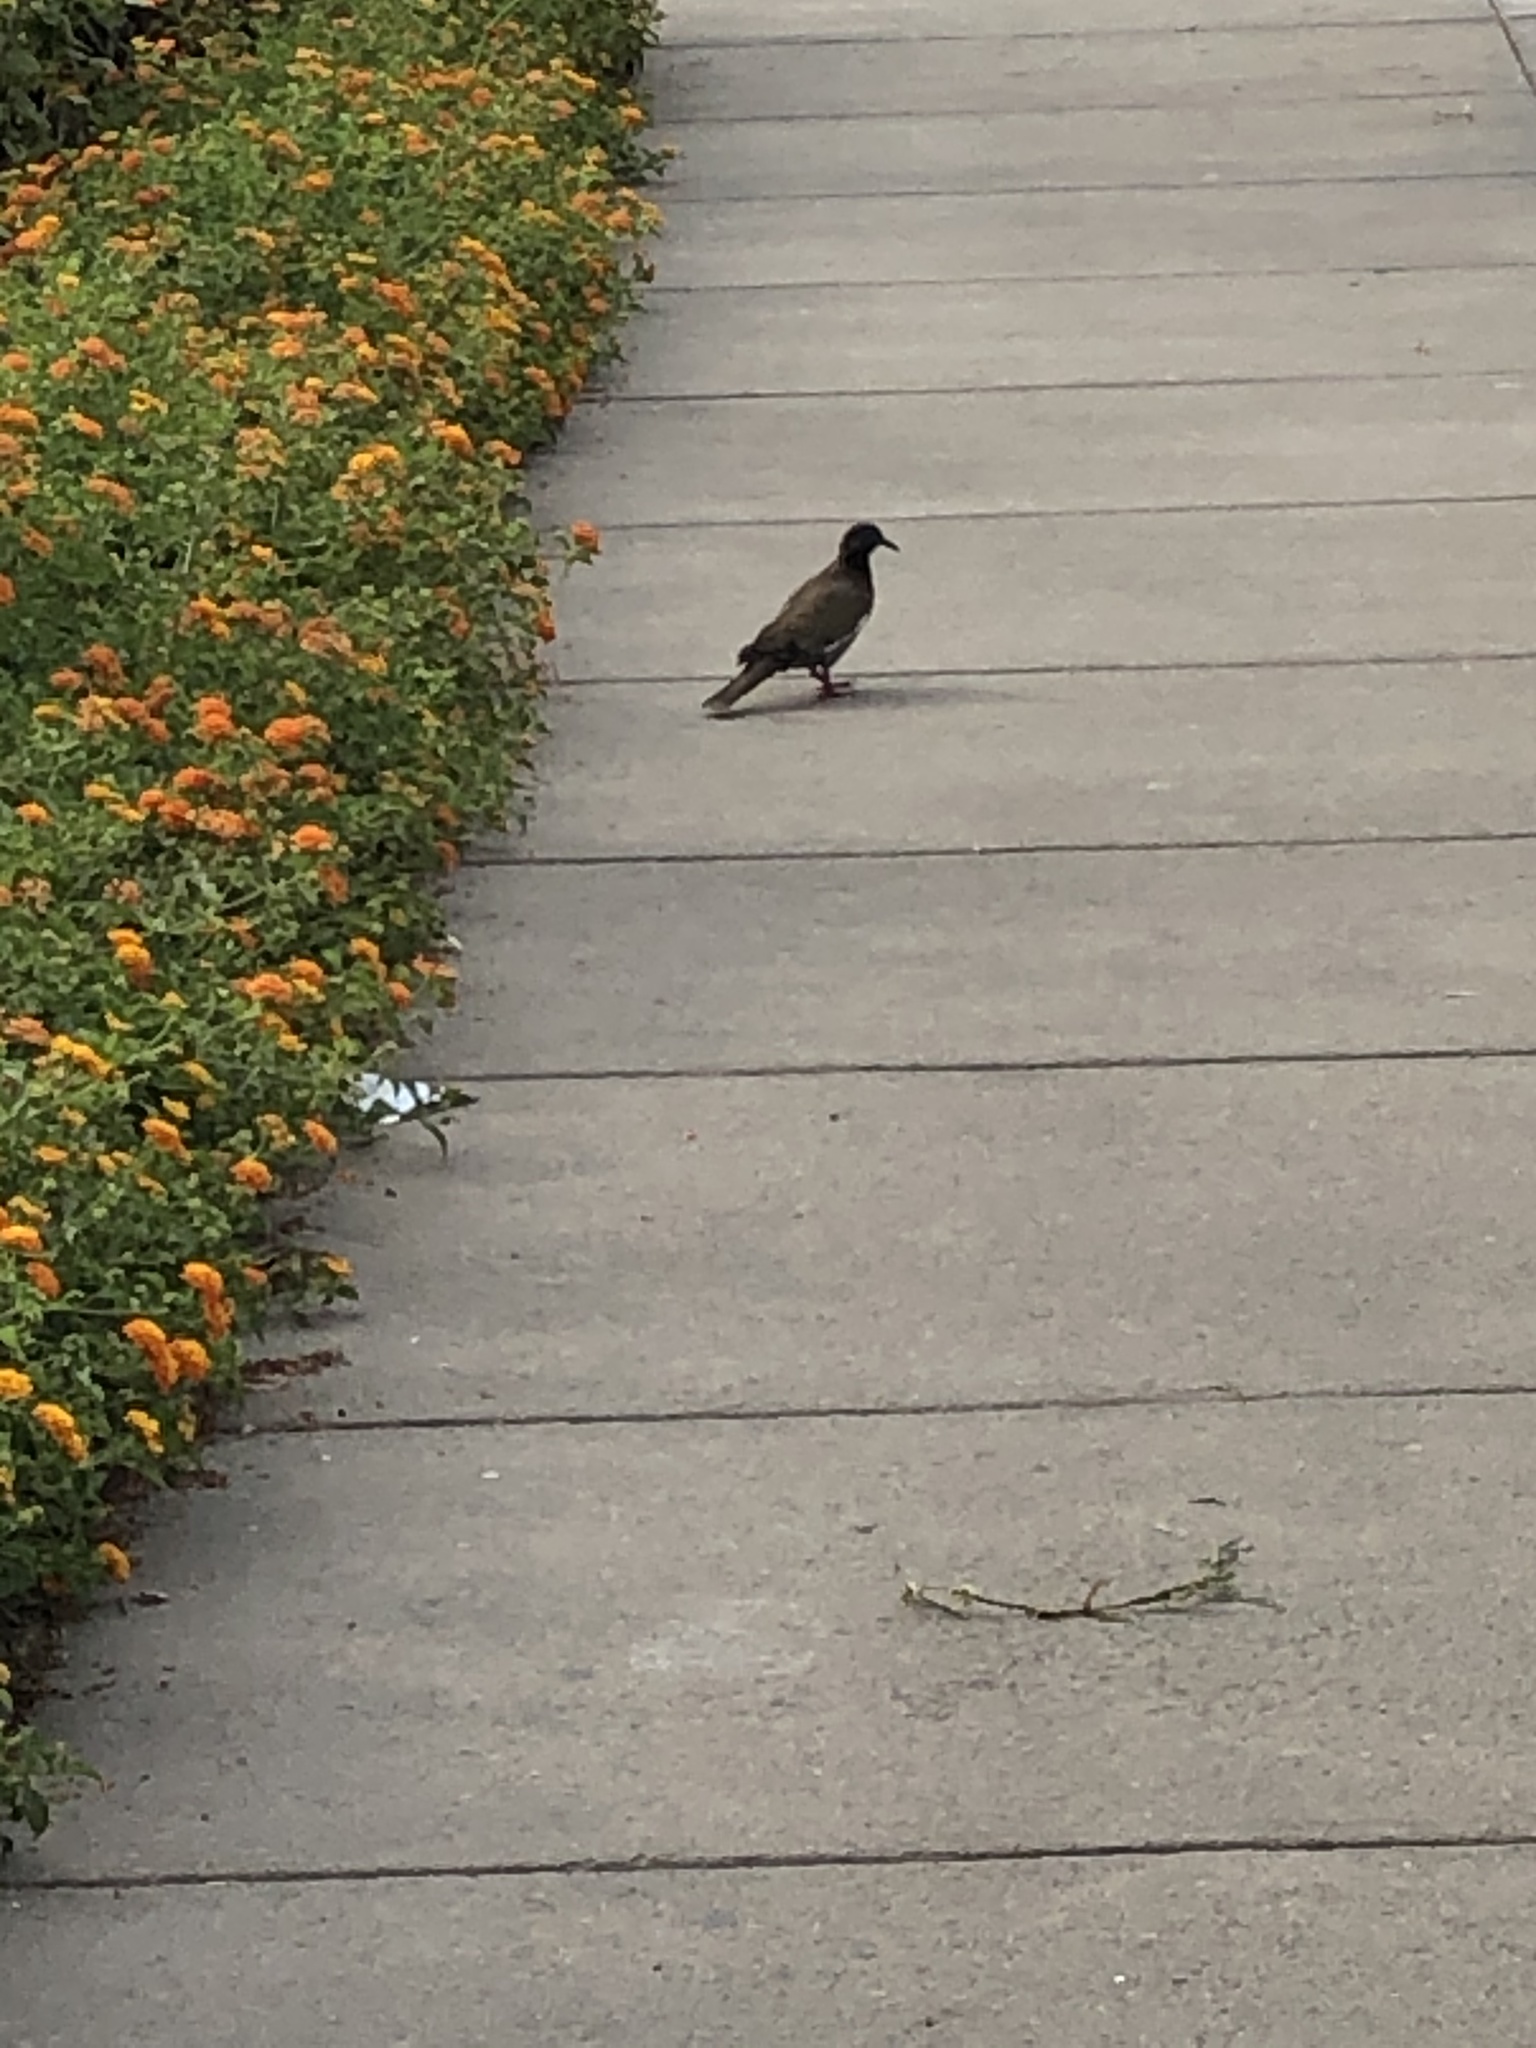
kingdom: Animalia
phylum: Chordata
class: Aves
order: Columbiformes
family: Columbidae
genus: Zenaida
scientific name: Zenaida meloda
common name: West peruvian dove
